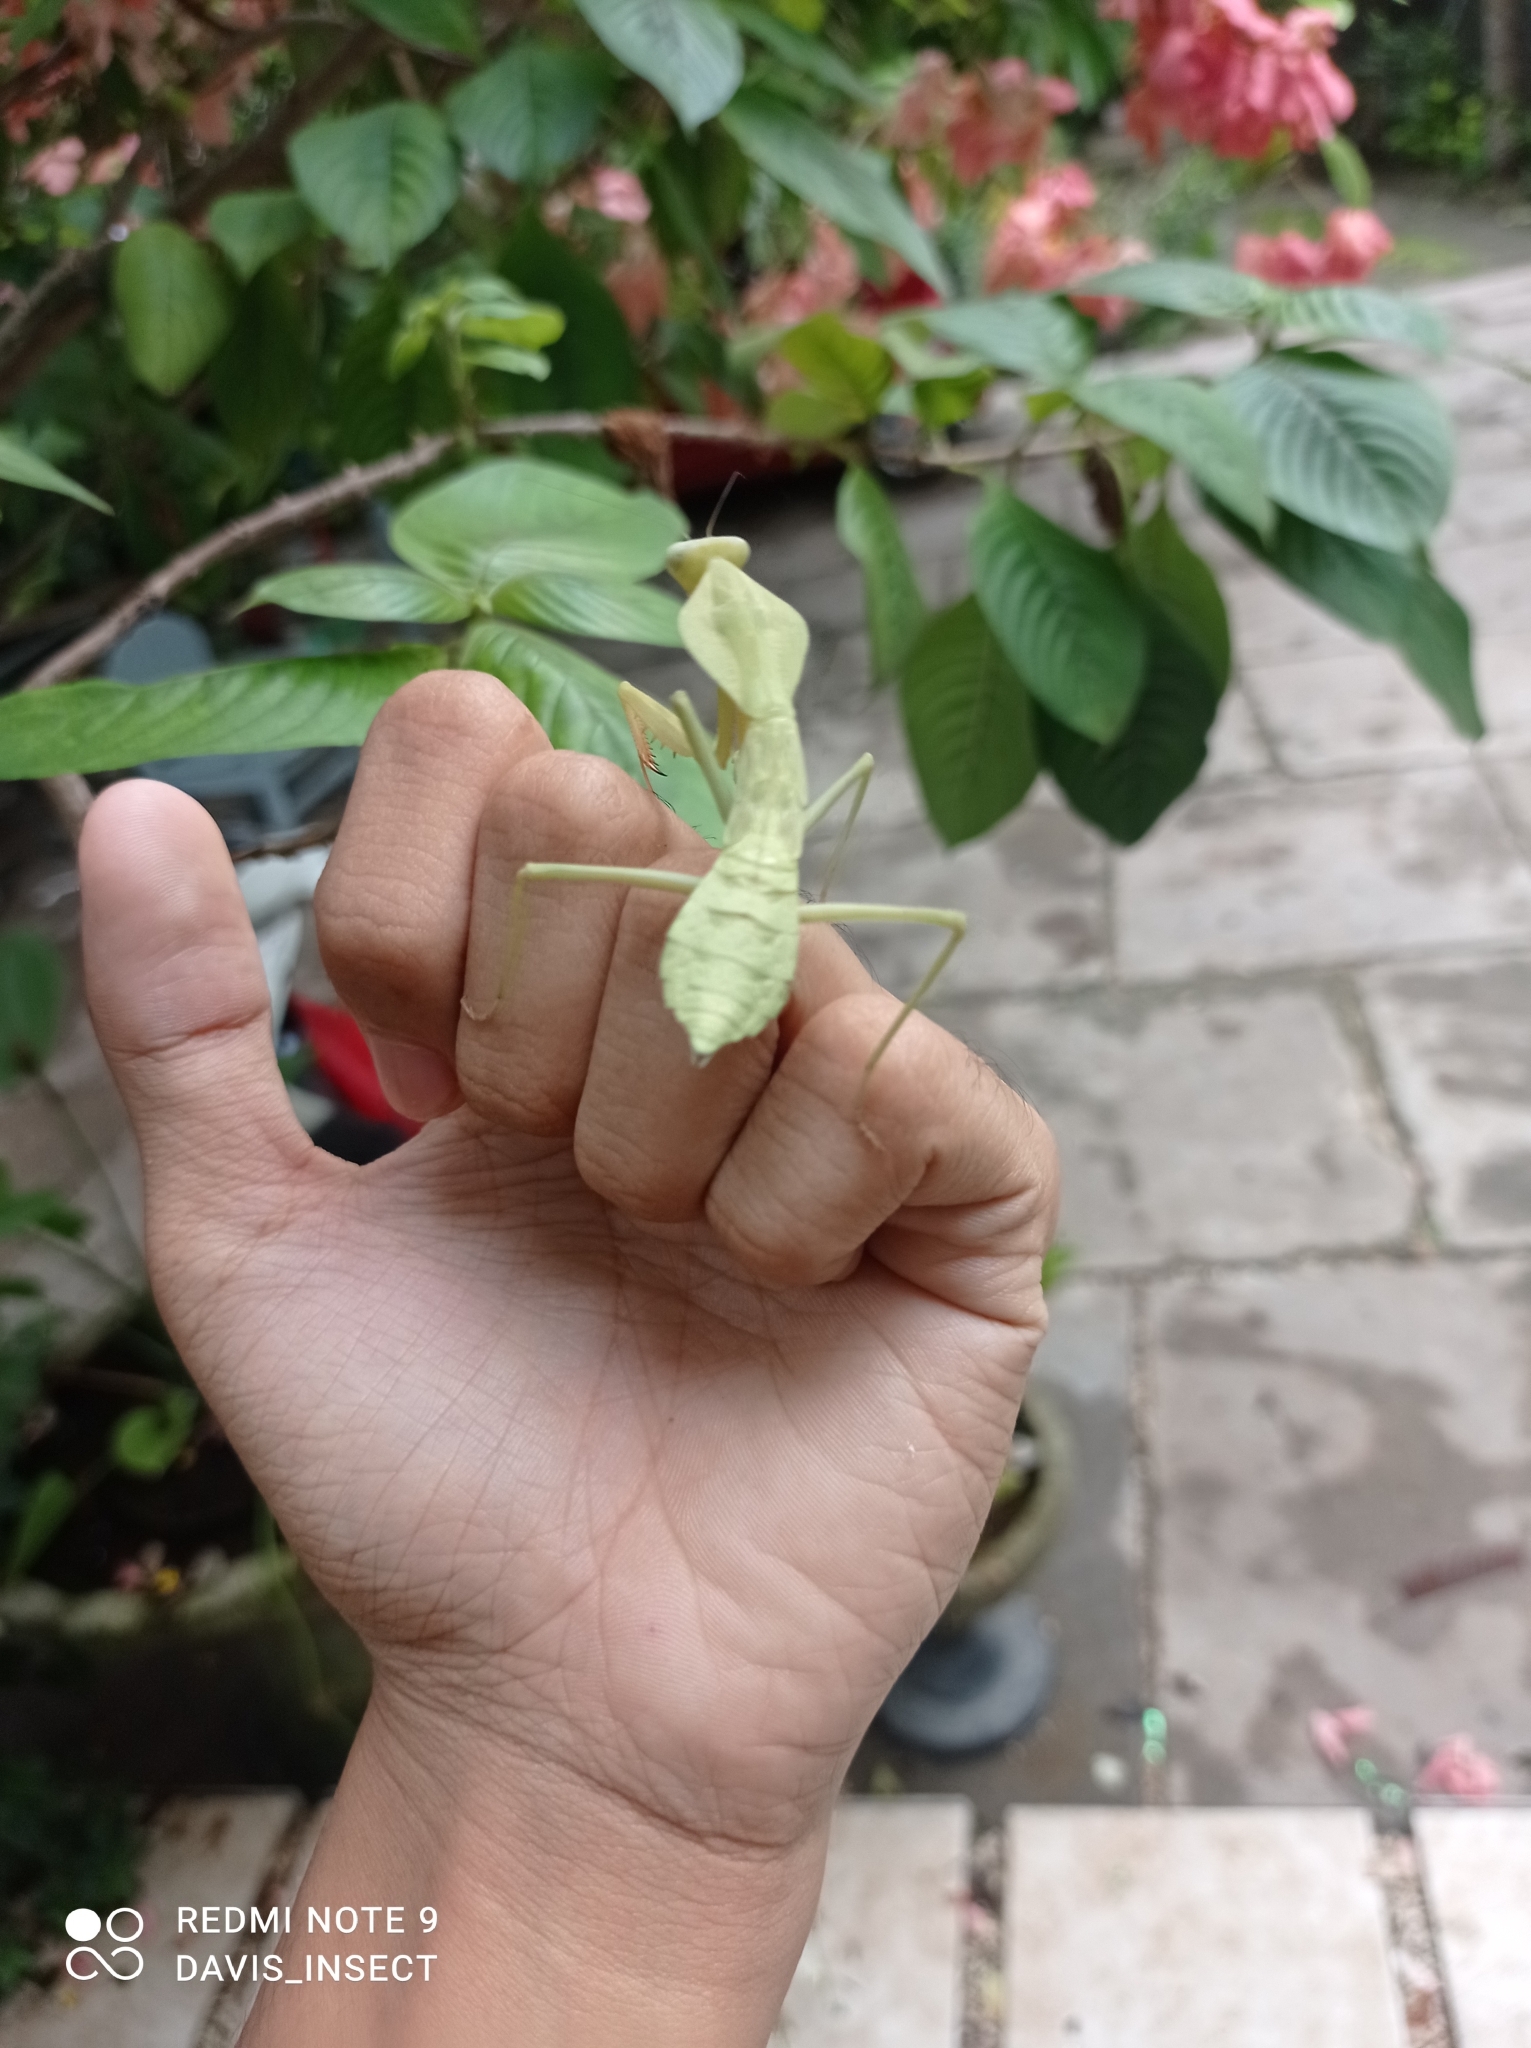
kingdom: Animalia
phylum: Arthropoda
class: Insecta
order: Mantodea
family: Mantidae
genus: Rhombodera
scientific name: Rhombodera kirbyi
